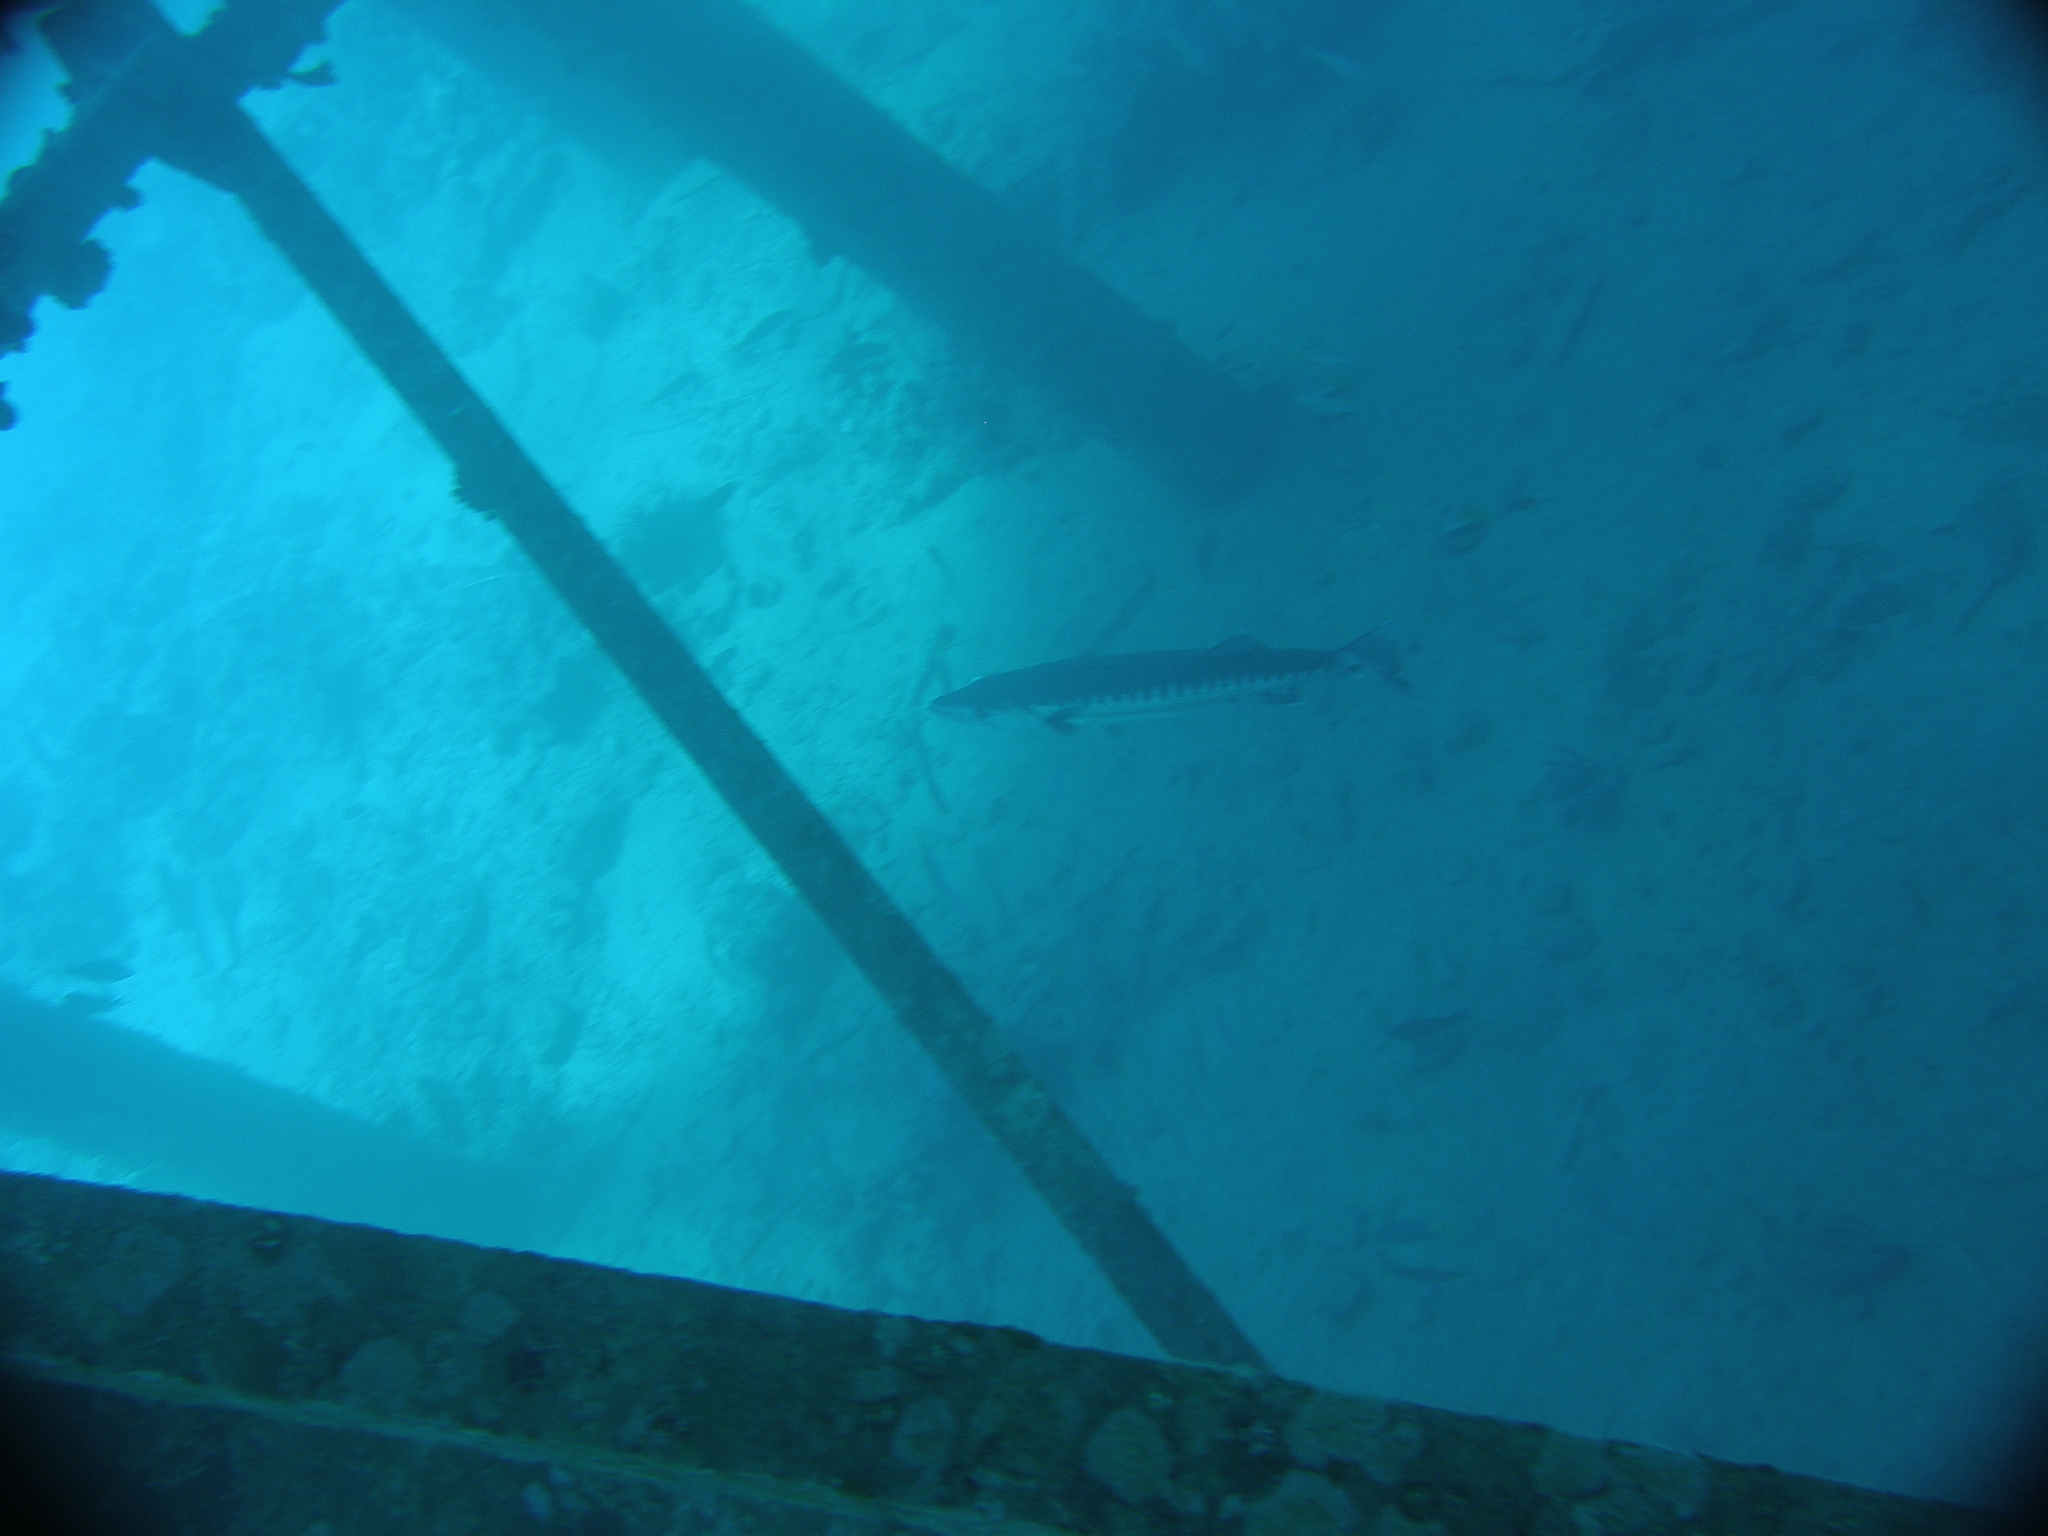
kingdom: Animalia
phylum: Chordata
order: Perciformes
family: Sphyraenidae
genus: Sphyraena
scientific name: Sphyraena barracuda
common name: Great barracuda
